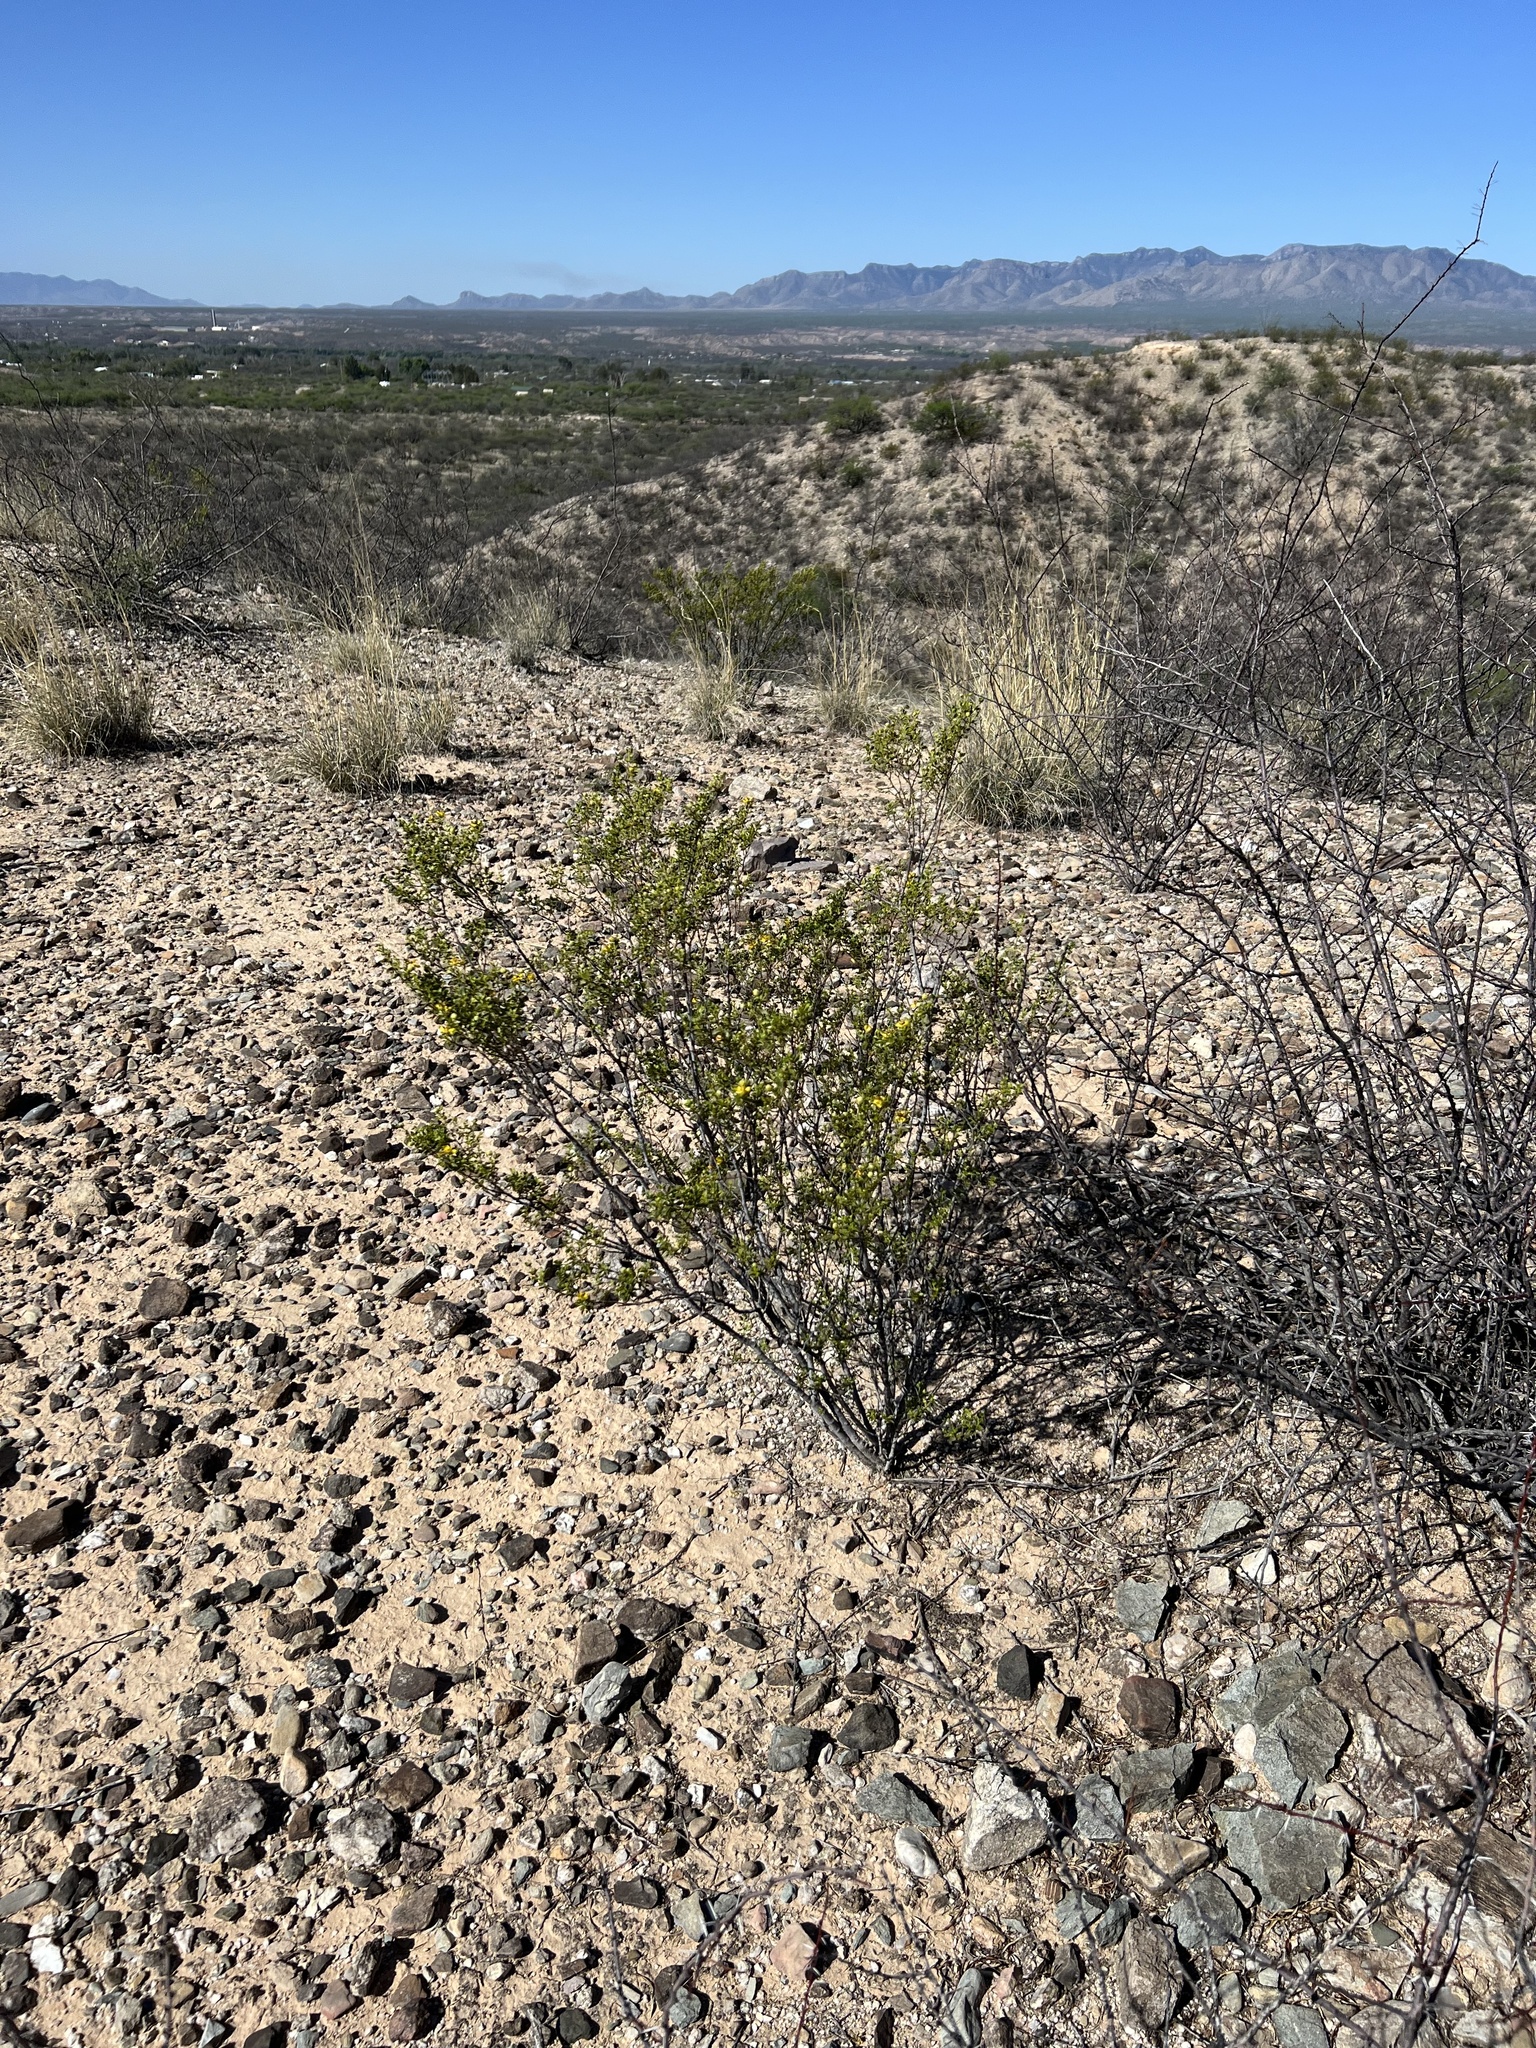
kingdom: Plantae
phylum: Tracheophyta
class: Magnoliopsida
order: Zygophyllales
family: Zygophyllaceae
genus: Larrea
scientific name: Larrea tridentata
